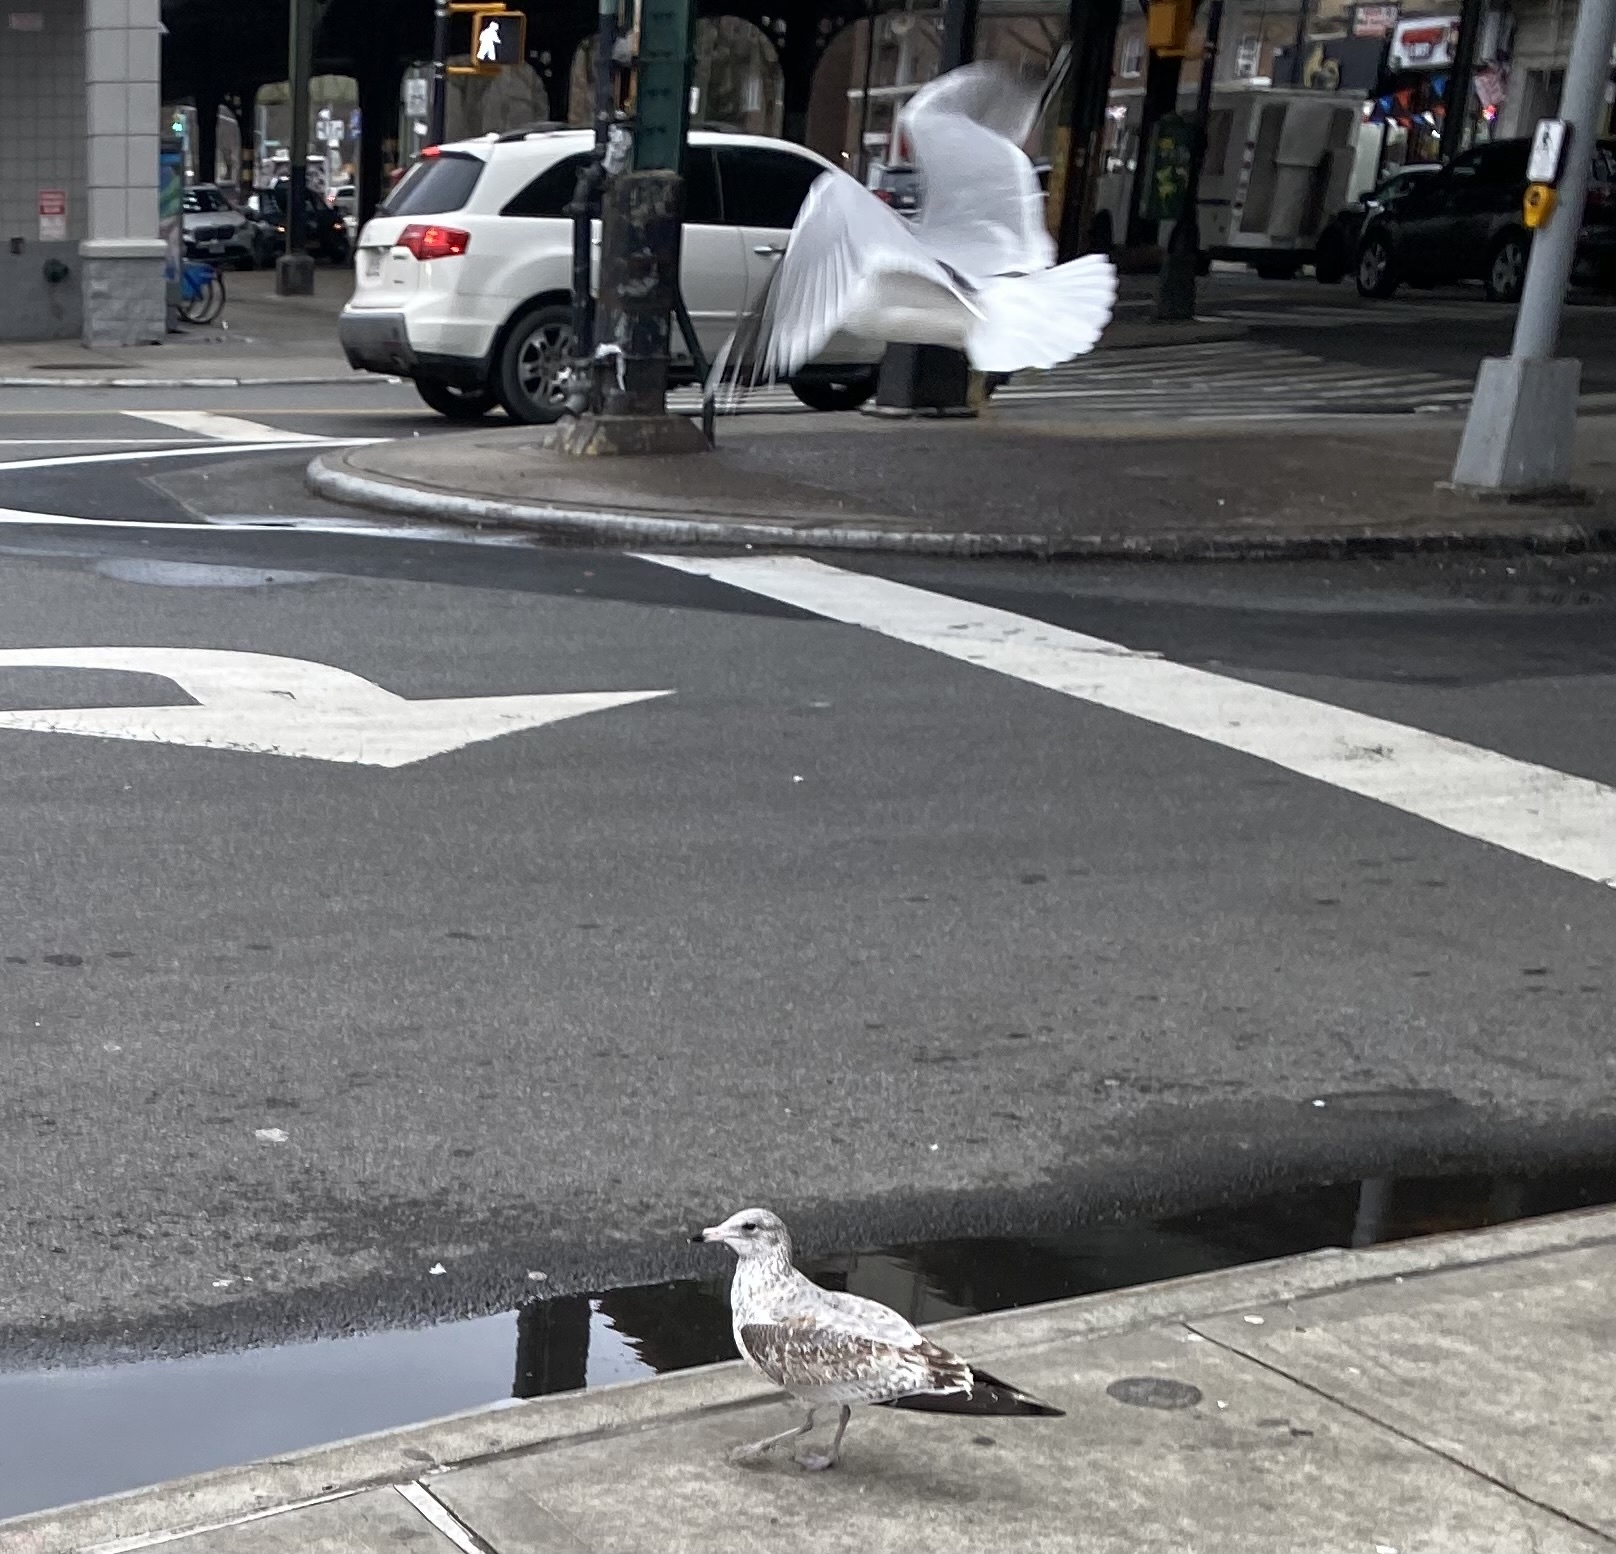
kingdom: Animalia
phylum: Chordata
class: Aves
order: Charadriiformes
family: Laridae
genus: Larus
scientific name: Larus delawarensis
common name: Ring-billed gull
